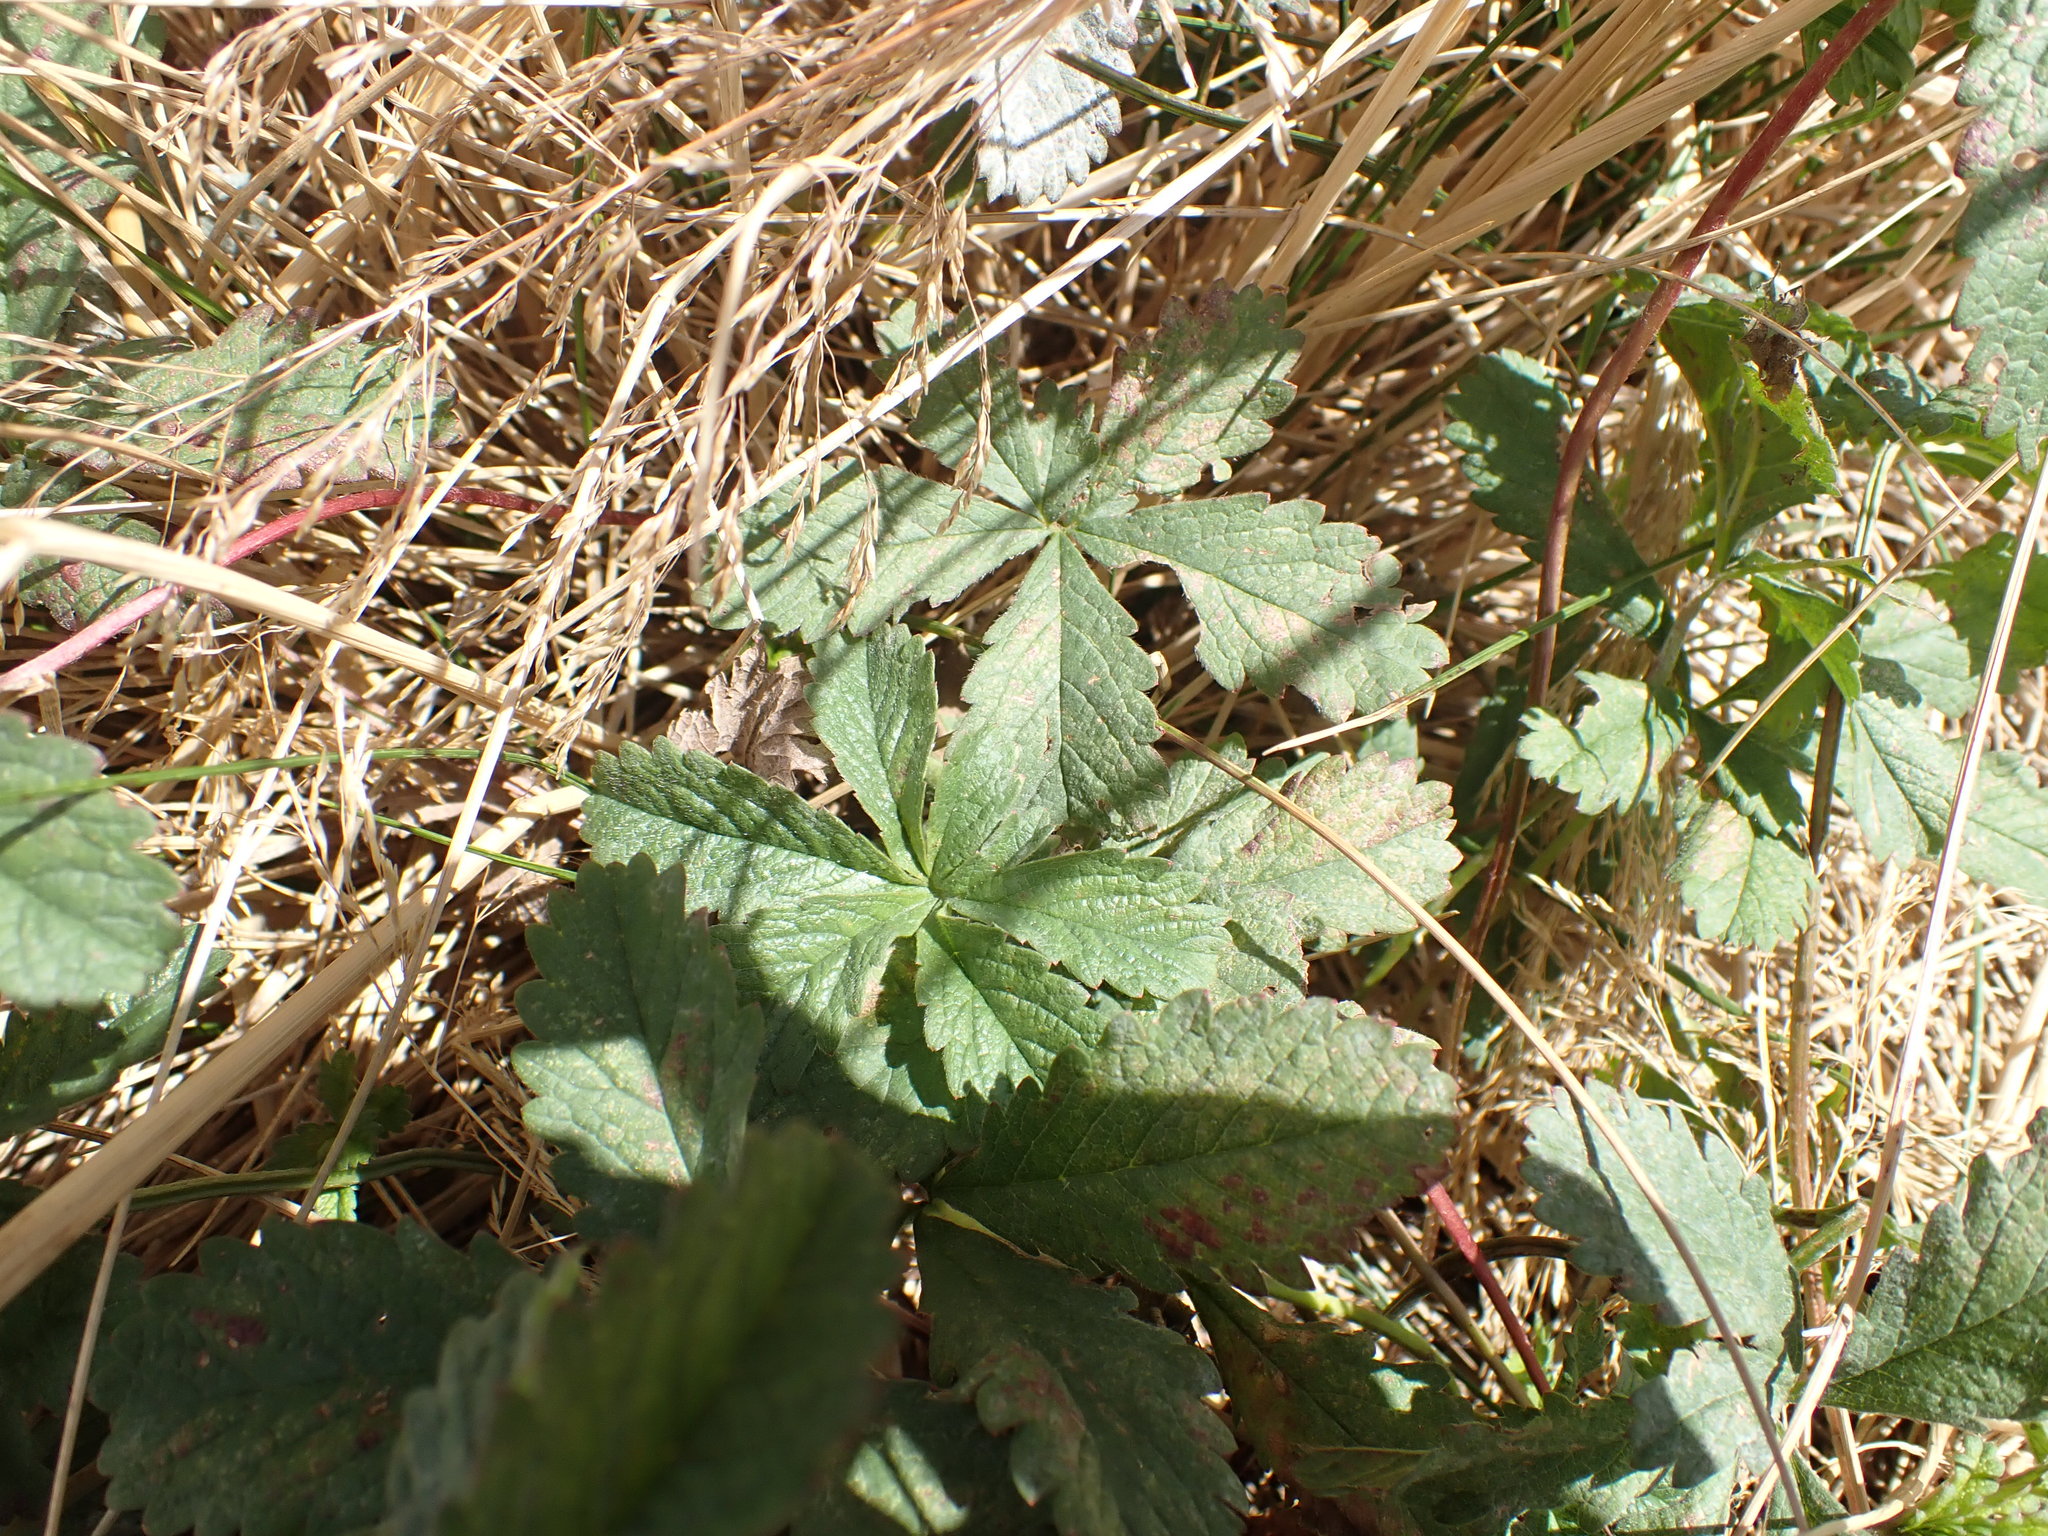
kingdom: Plantae
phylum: Tracheophyta
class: Magnoliopsida
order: Rosales
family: Rosaceae
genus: Potentilla
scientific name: Potentilla reptans
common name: Creeping cinquefoil
